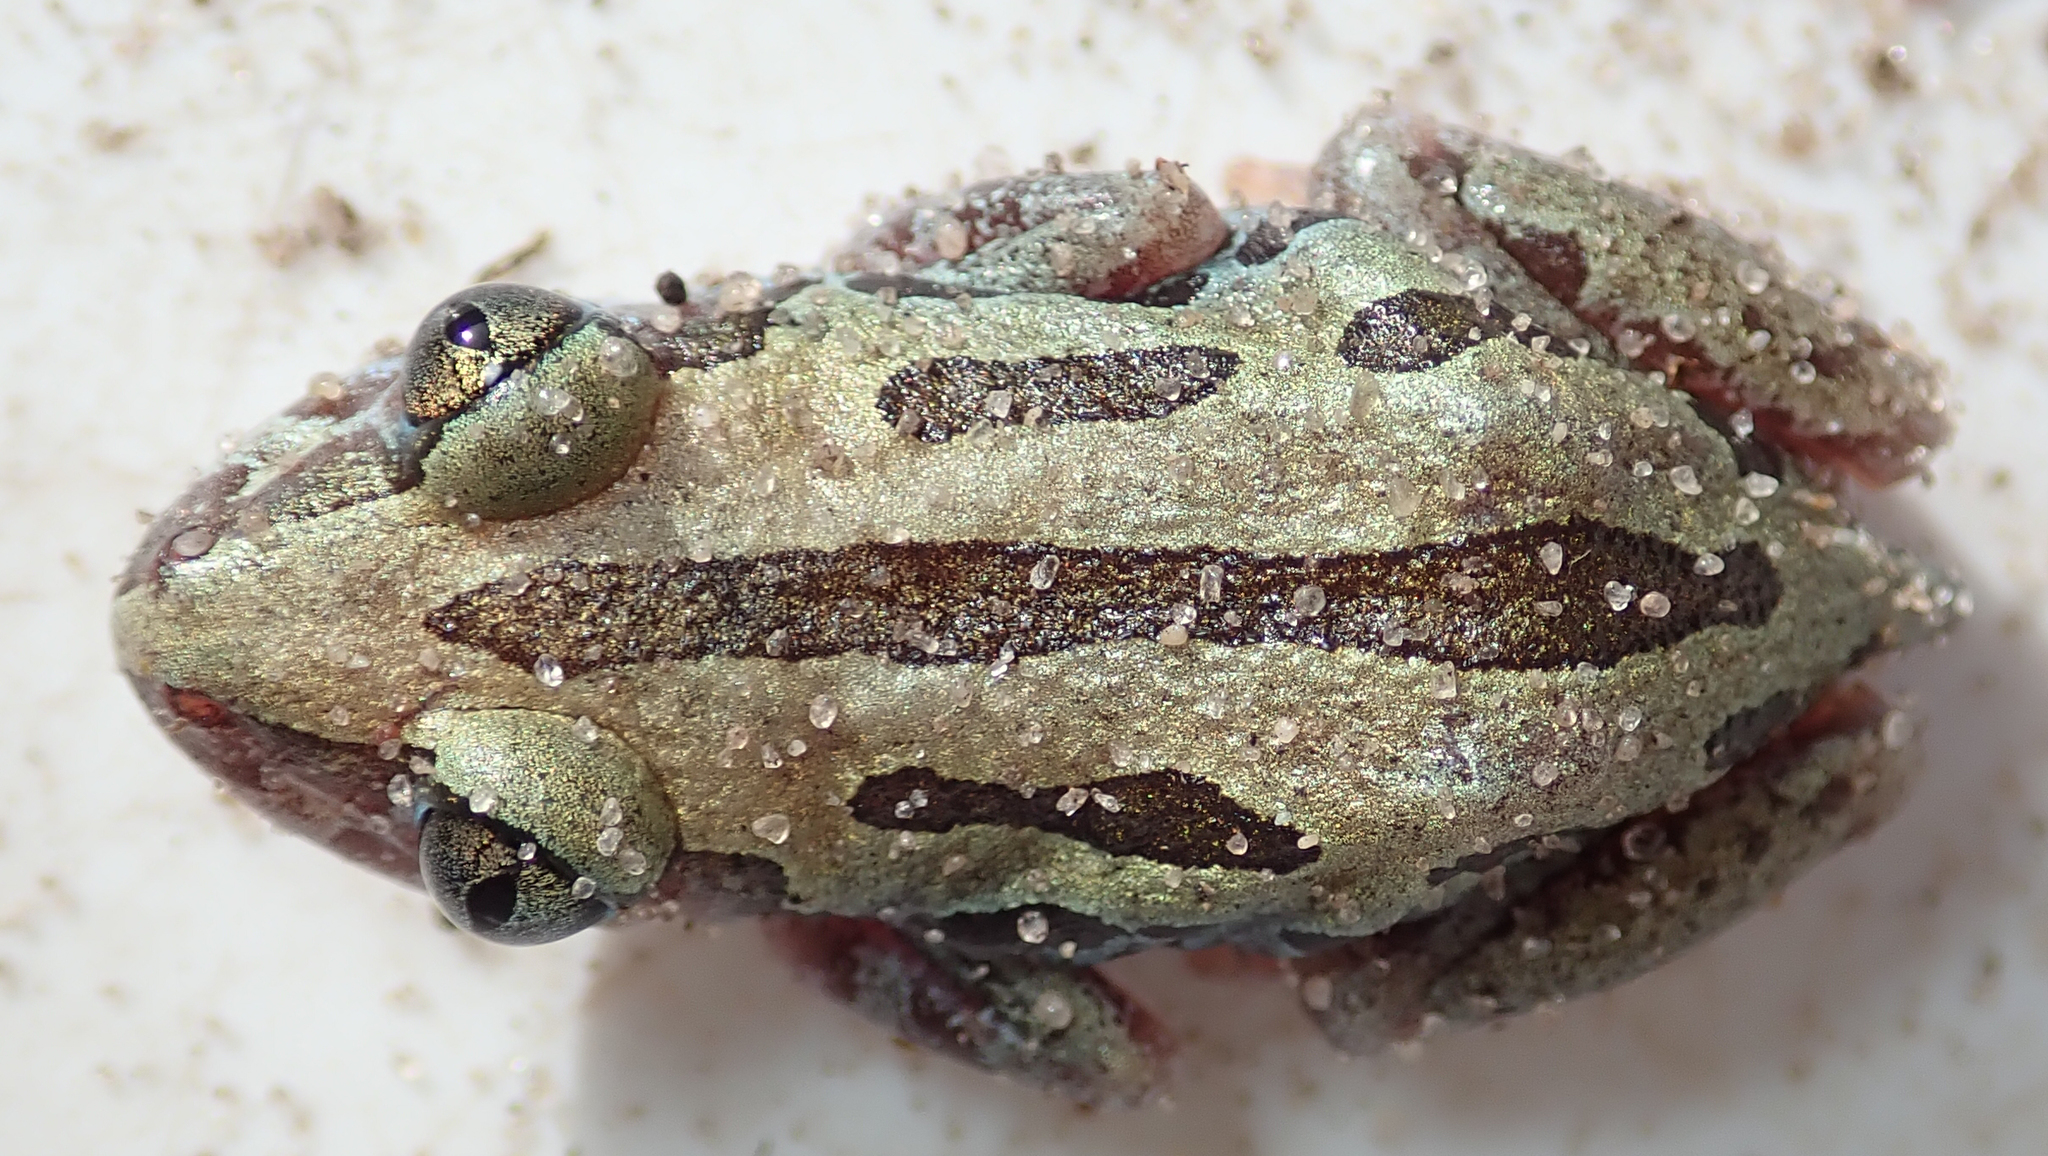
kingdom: Animalia
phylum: Chordata
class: Amphibia
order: Anura
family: Hyperoliidae
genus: Kassina
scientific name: Kassina senegalensis
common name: Senegal land frog
